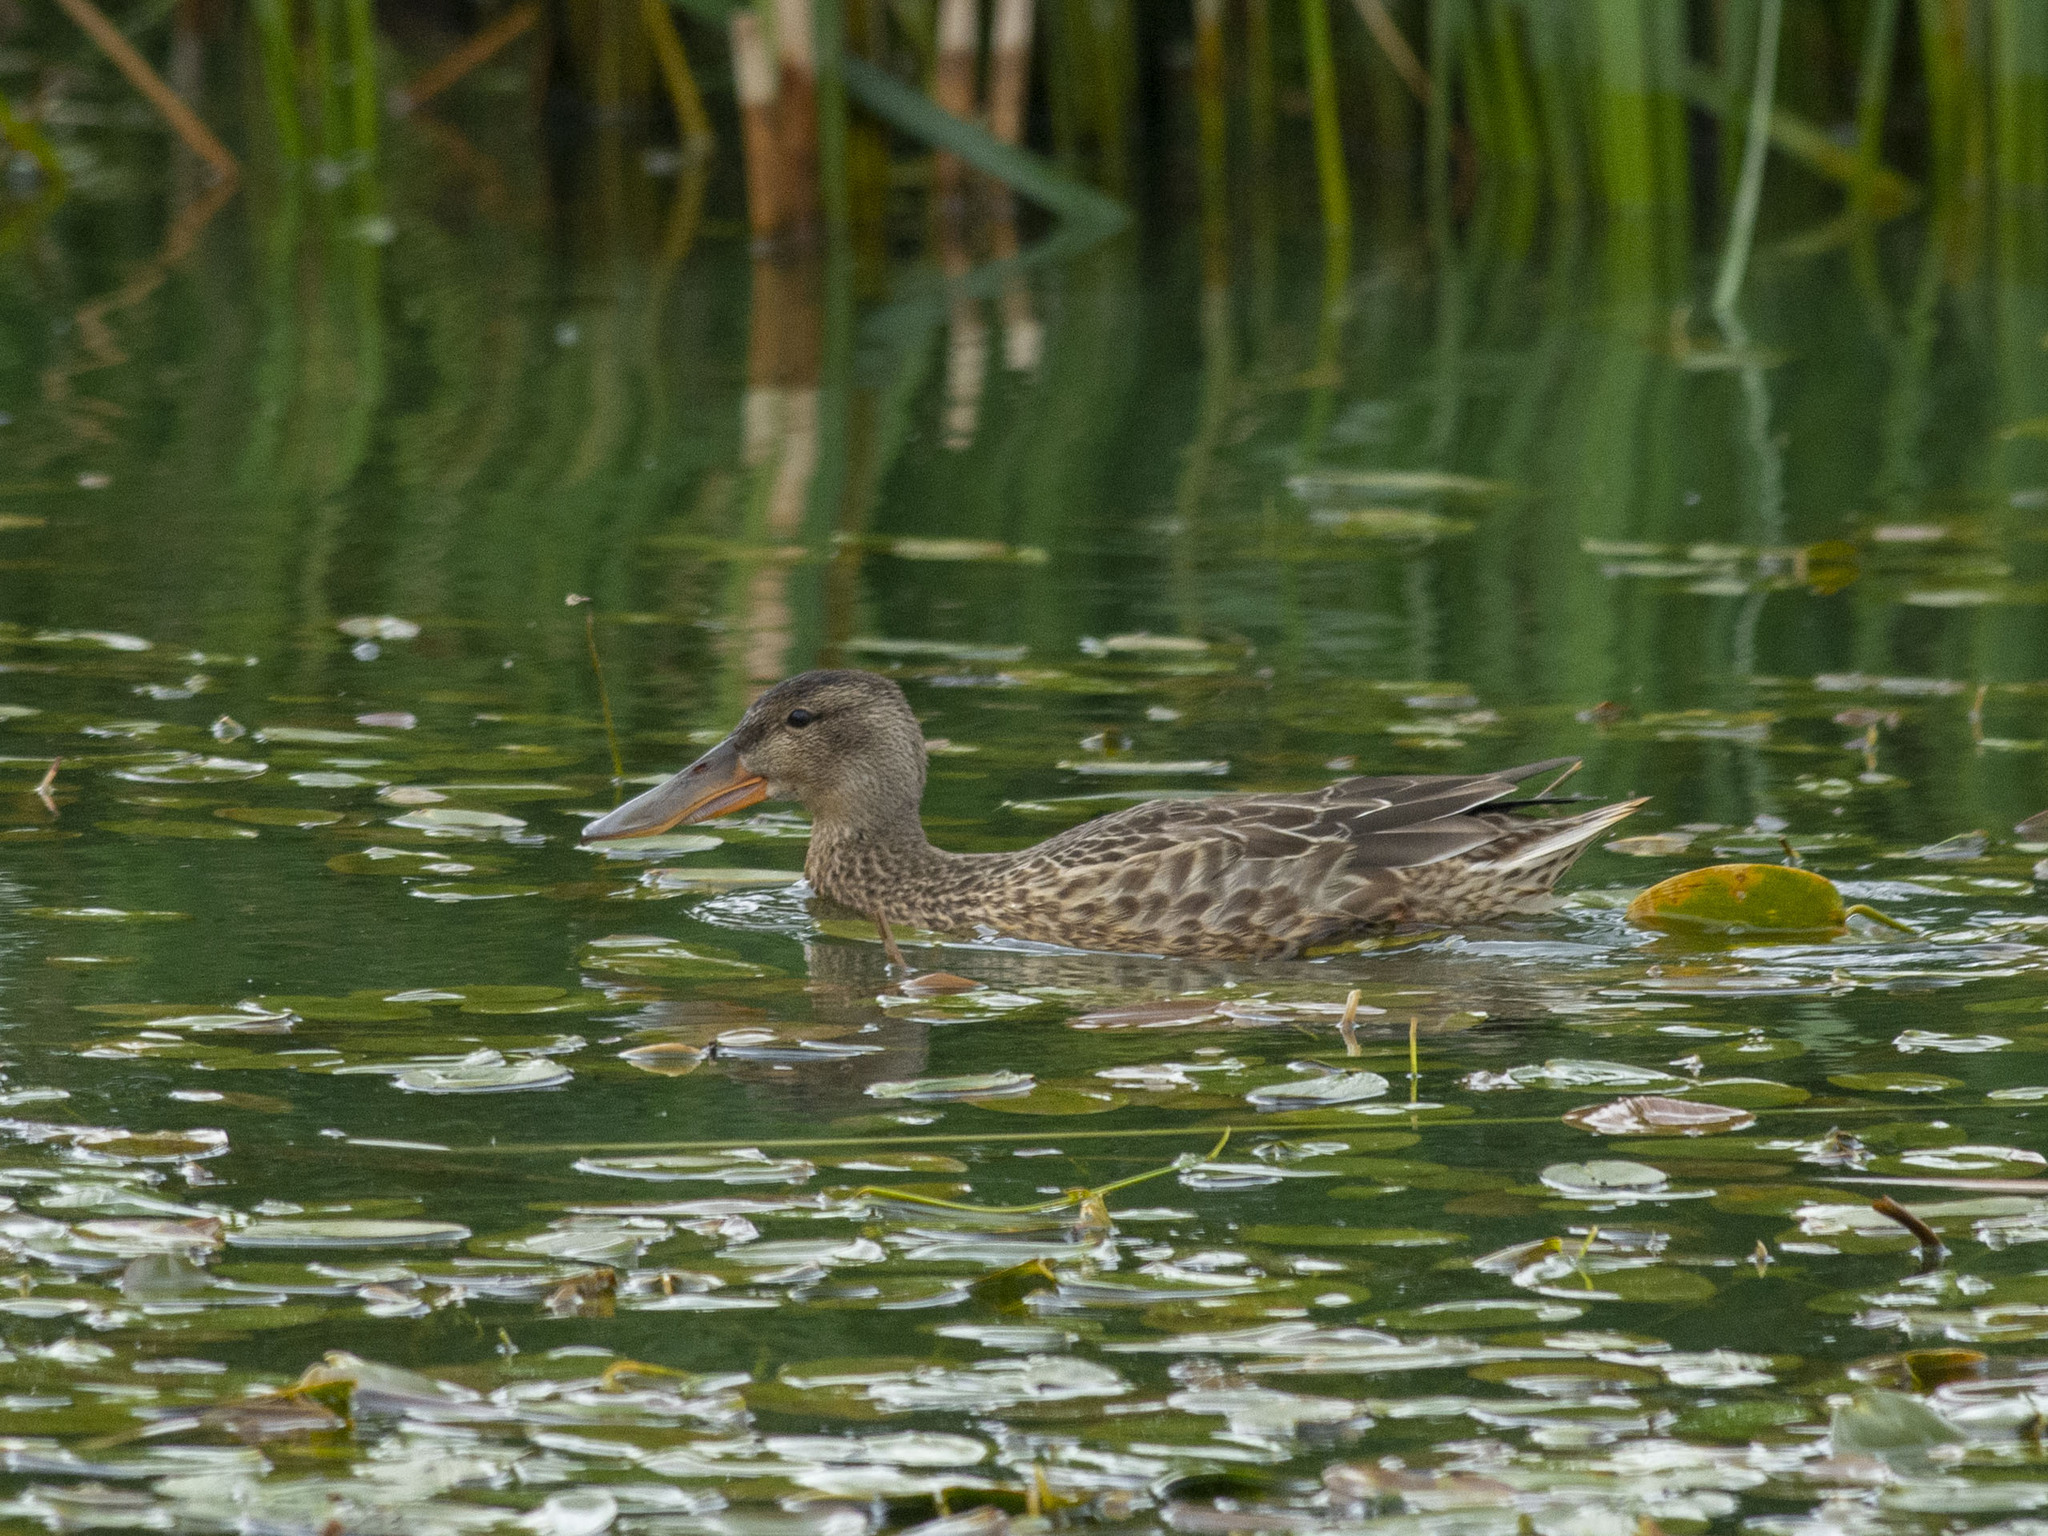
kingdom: Animalia
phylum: Chordata
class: Aves
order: Anseriformes
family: Anatidae
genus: Spatula
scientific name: Spatula clypeata
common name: Northern shoveler
